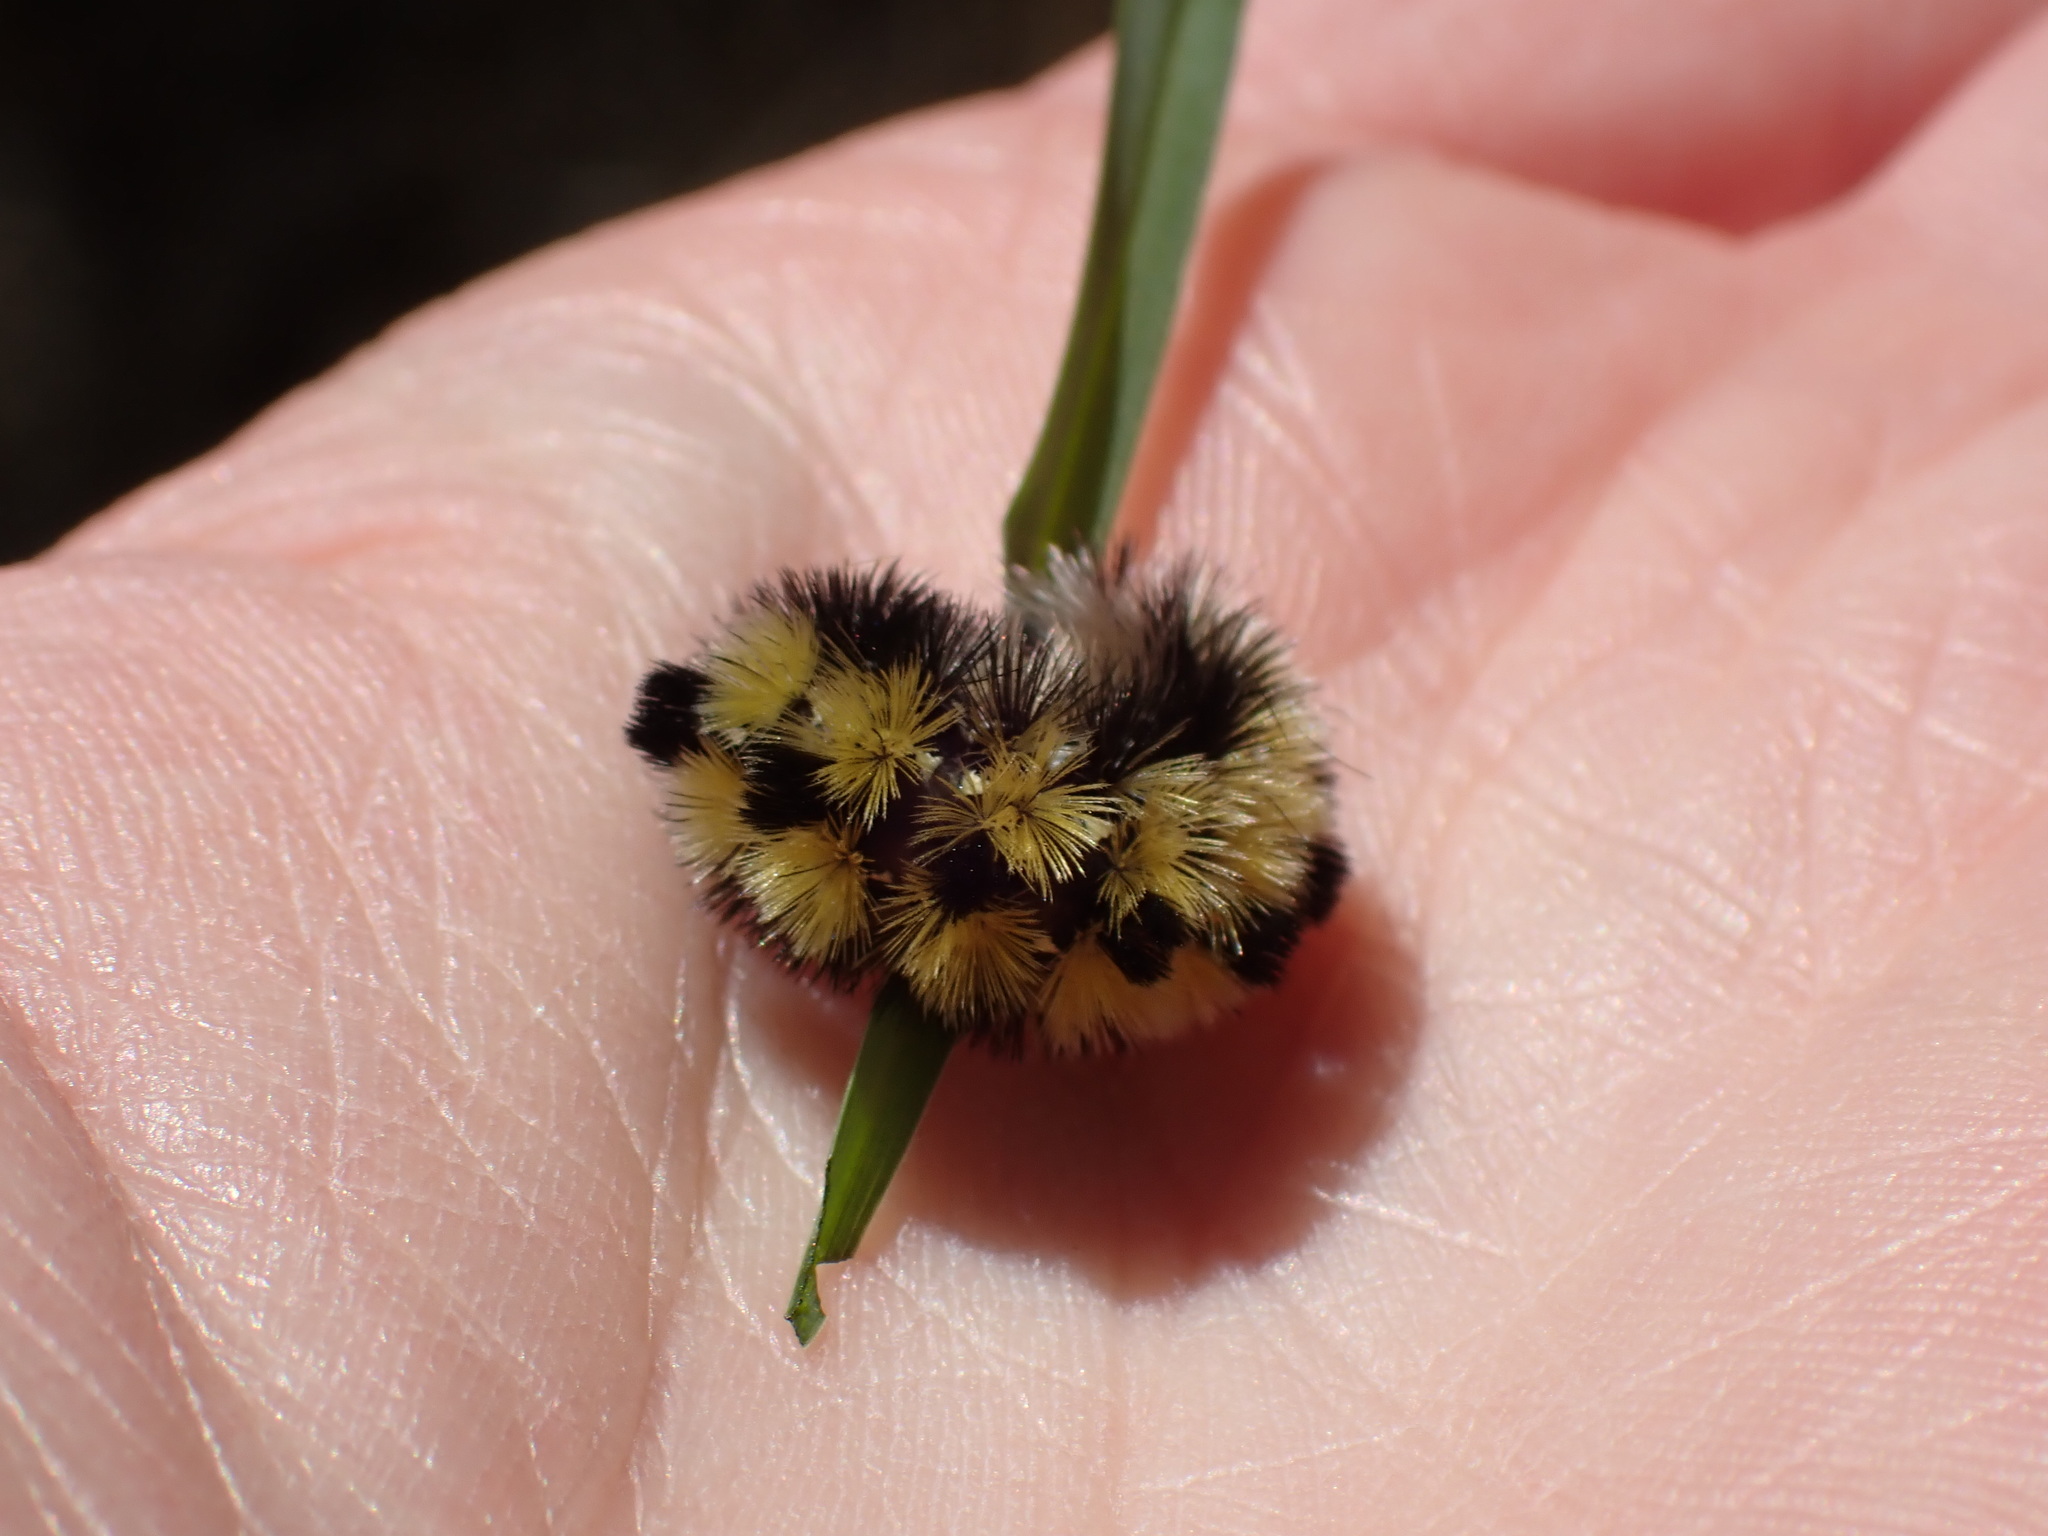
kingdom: Animalia
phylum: Arthropoda
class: Insecta
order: Lepidoptera
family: Erebidae
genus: Ctenucha
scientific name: Ctenucha virginica
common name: Virginia ctenucha moth
